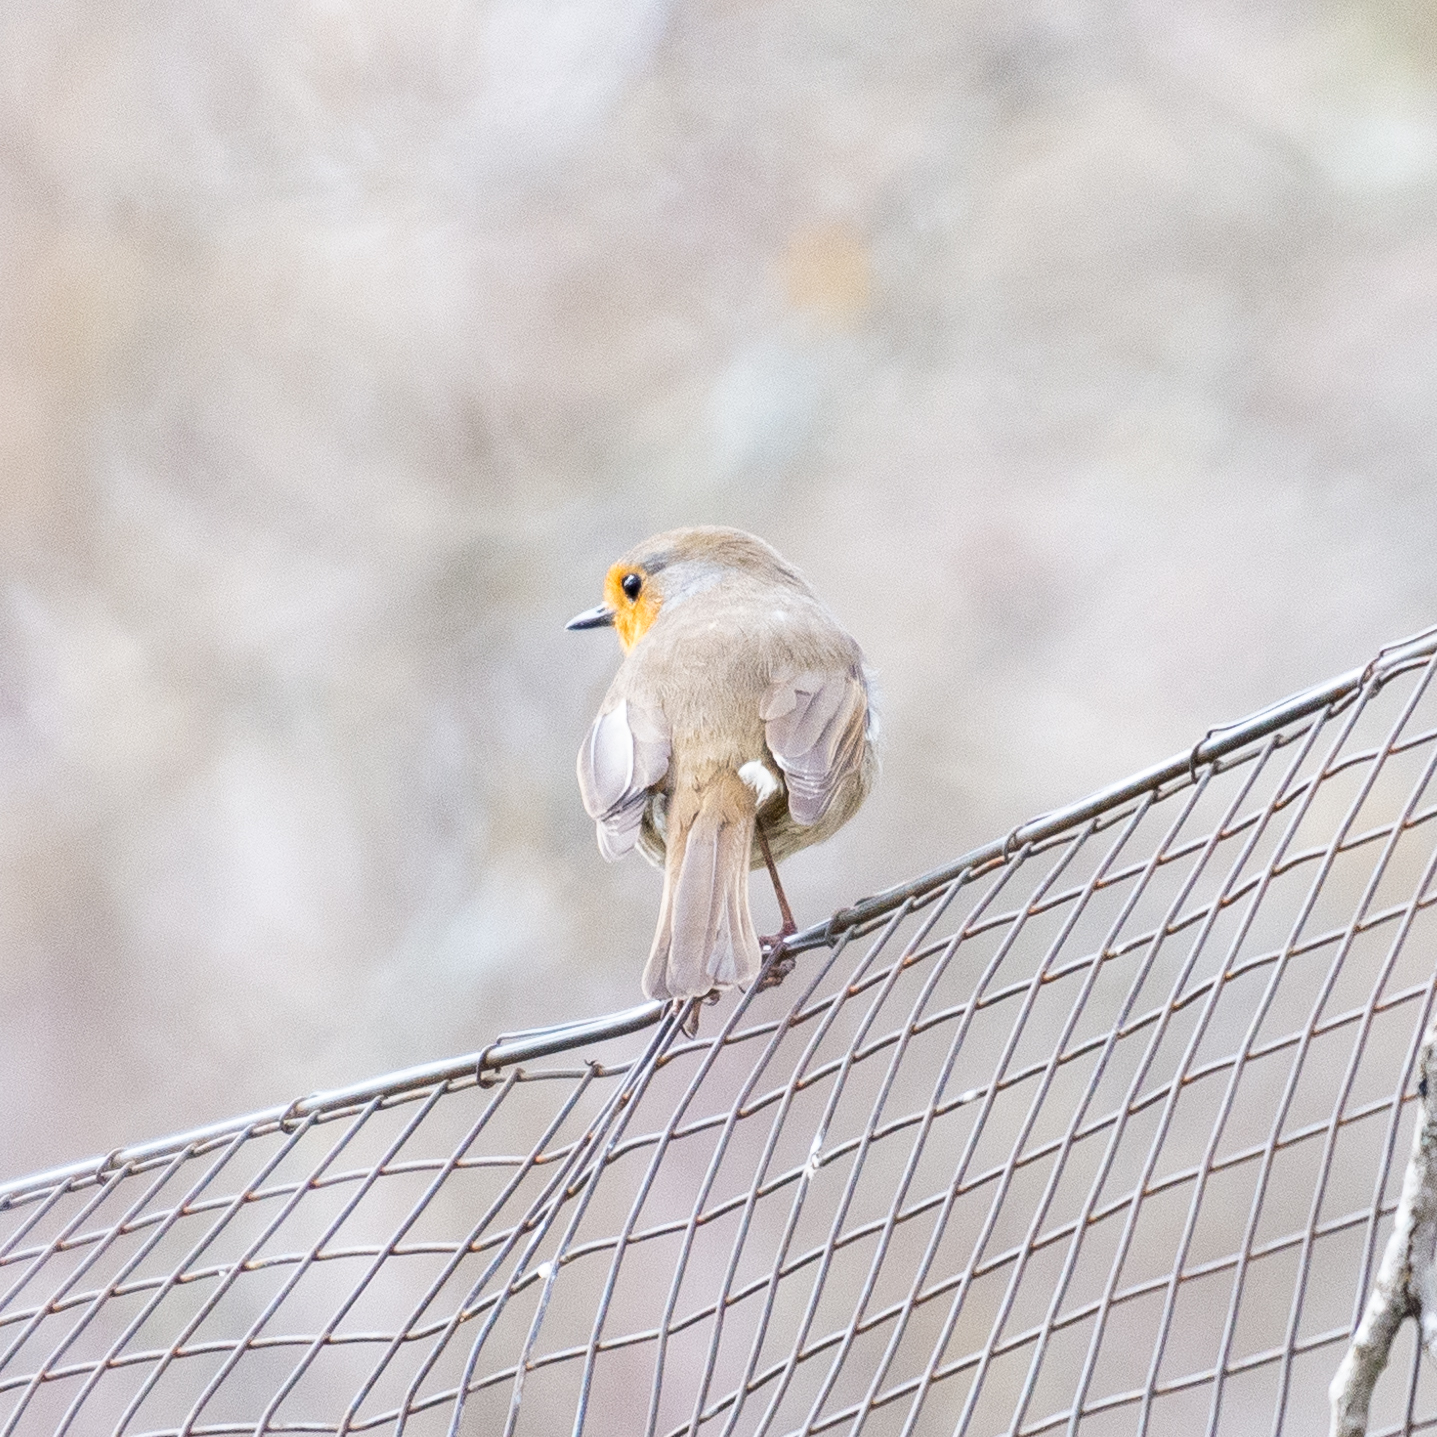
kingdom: Animalia
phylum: Chordata
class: Aves
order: Passeriformes
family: Muscicapidae
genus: Erithacus
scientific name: Erithacus rubecula
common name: European robin
